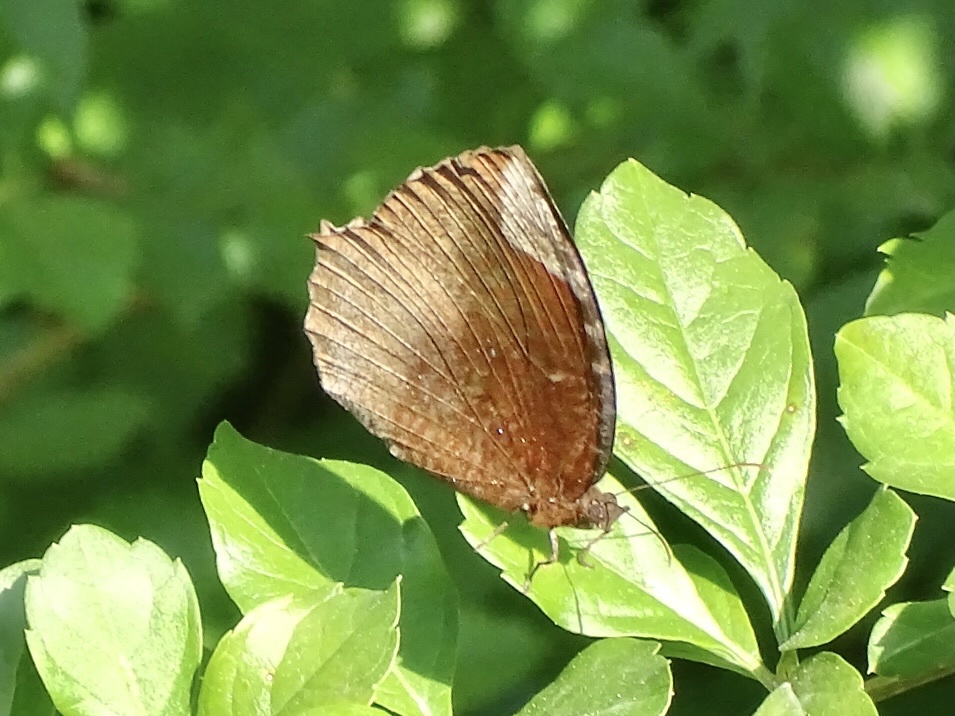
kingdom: Animalia
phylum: Arthropoda
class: Insecta
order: Lepidoptera
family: Nymphalidae
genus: Elymnias
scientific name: Elymnias hypermnestra
